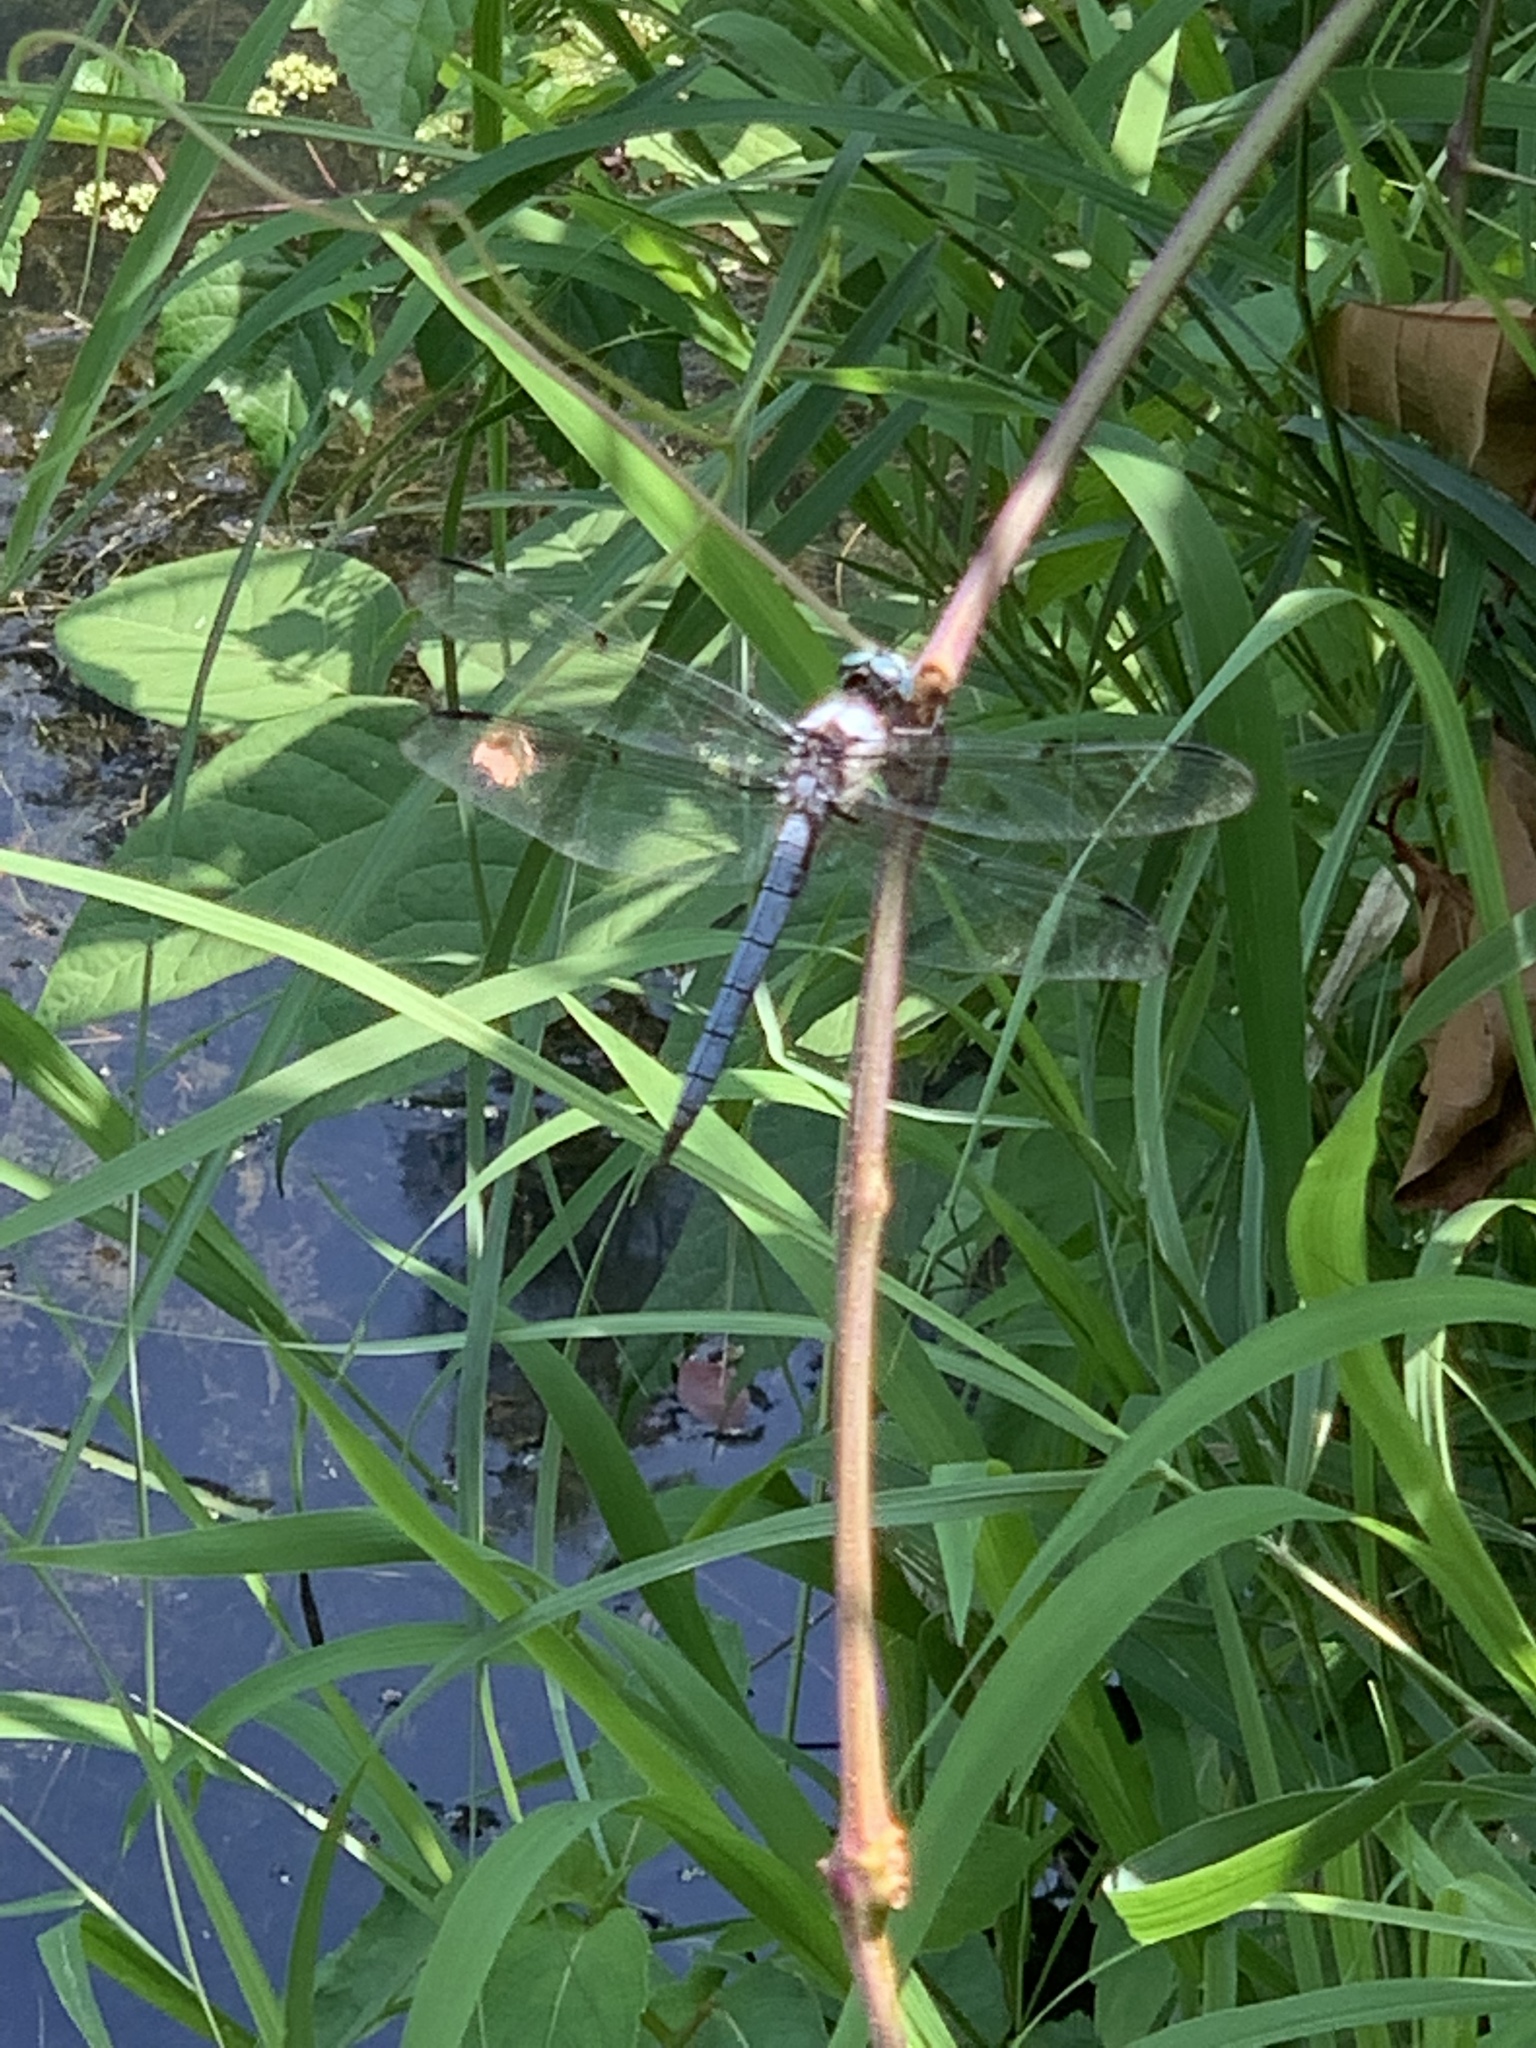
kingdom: Animalia
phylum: Arthropoda
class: Insecta
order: Odonata
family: Libellulidae
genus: Libellula
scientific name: Libellula vibrans
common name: Great blue skimmer
